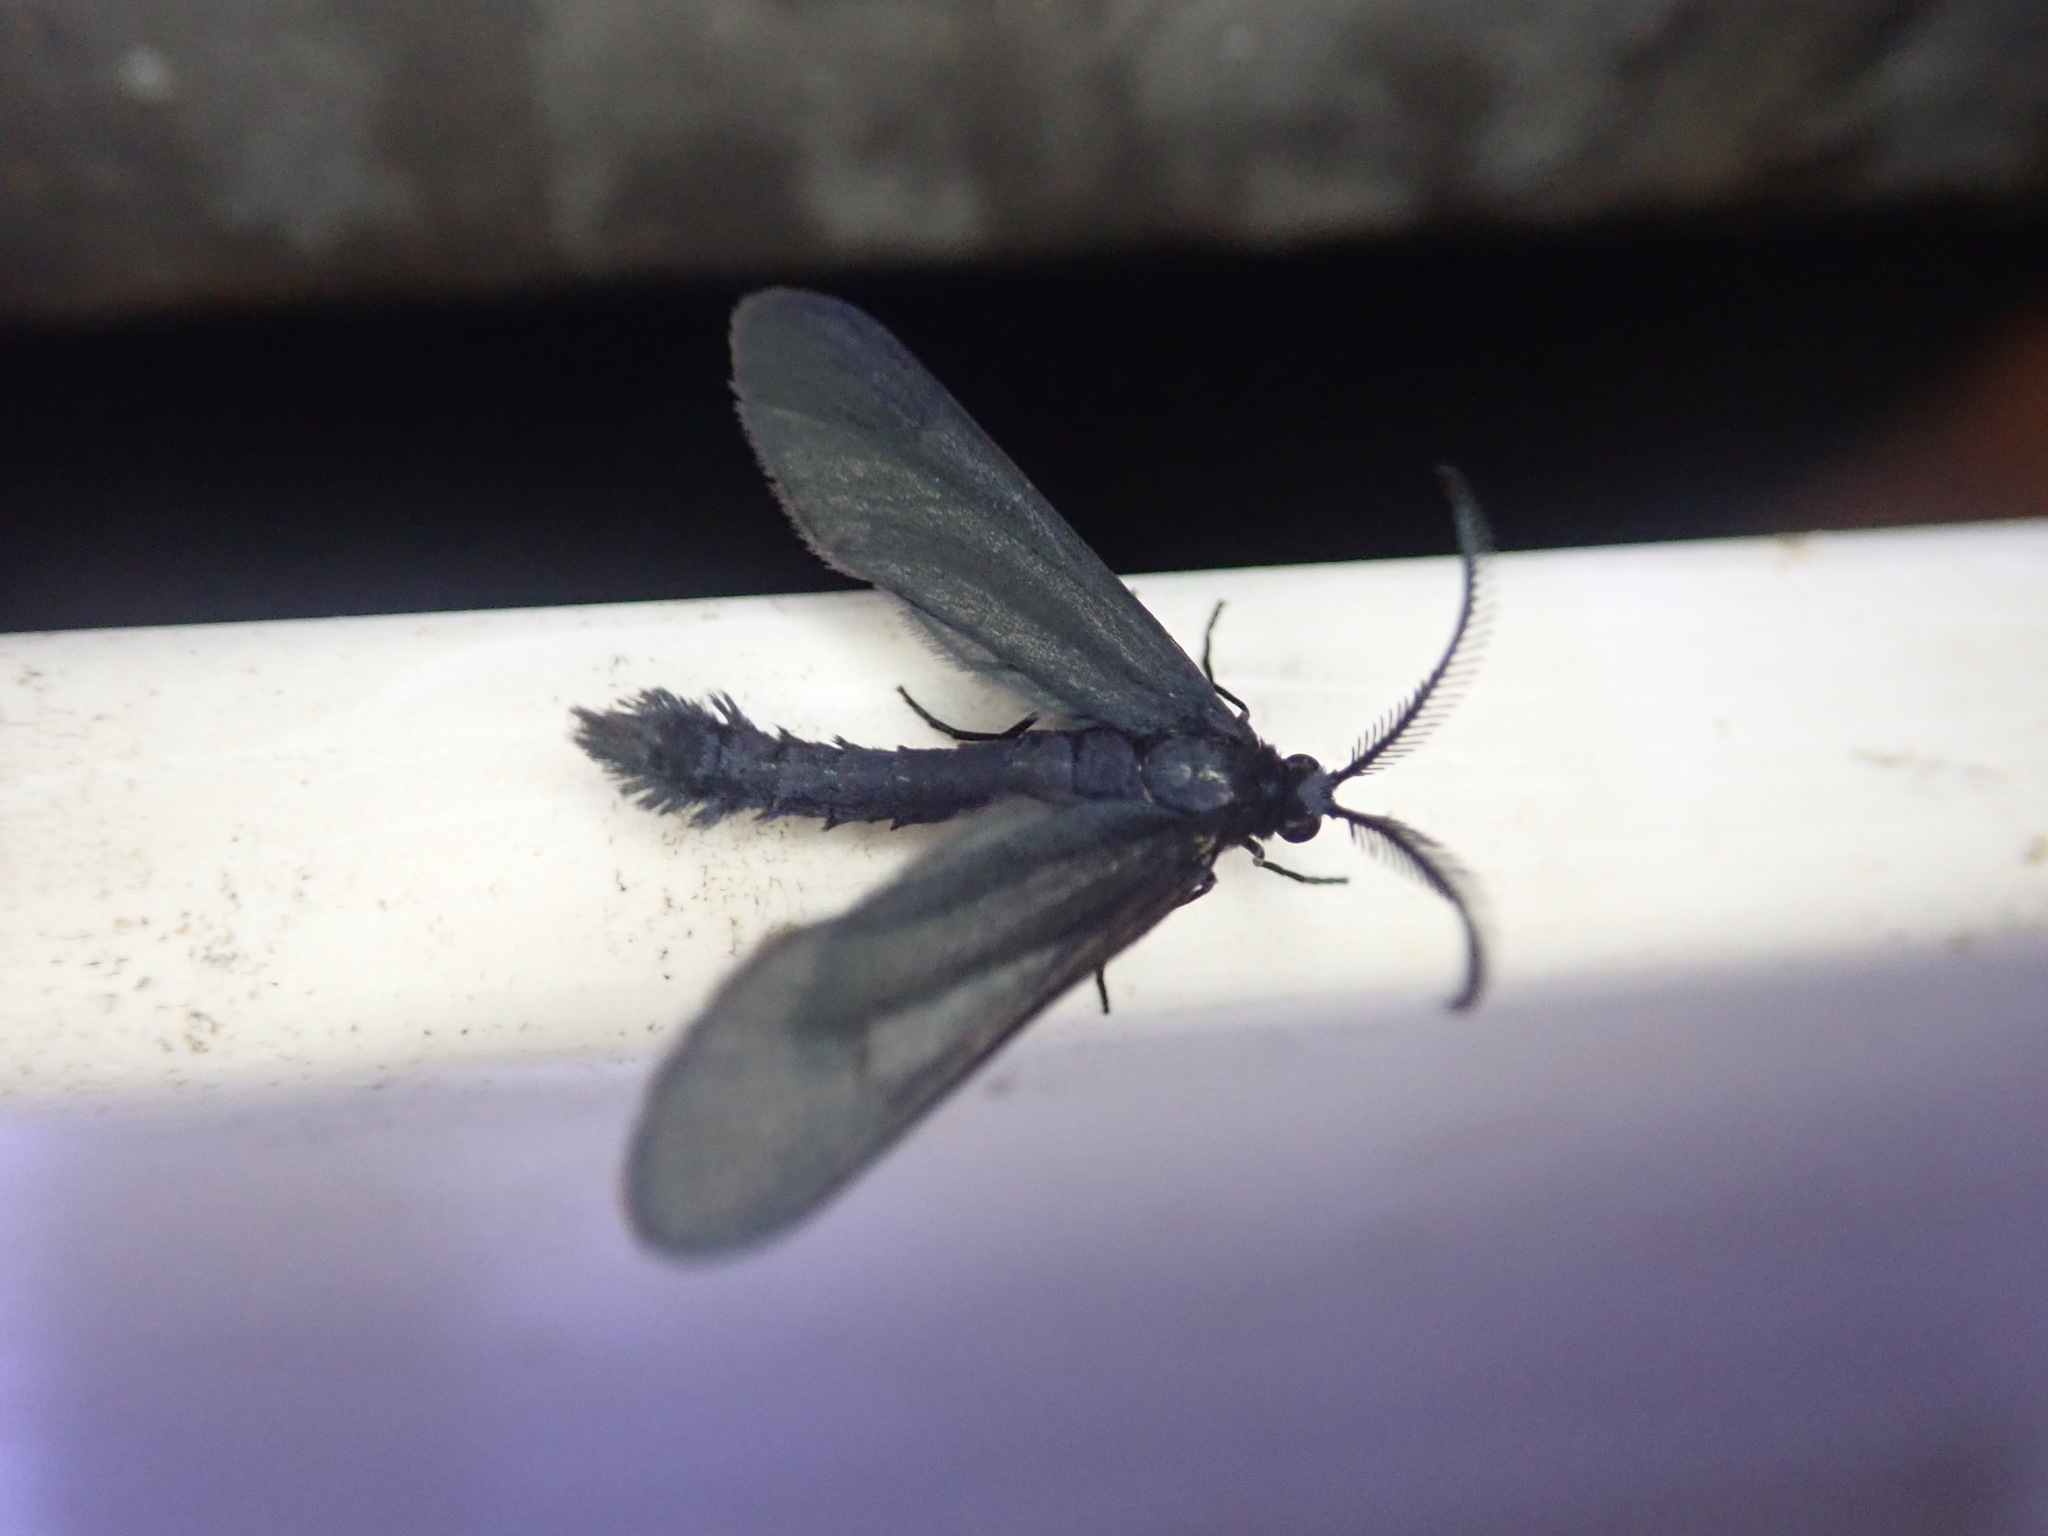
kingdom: Animalia
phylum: Arthropoda
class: Insecta
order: Lepidoptera
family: Zygaenidae
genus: Harrisina
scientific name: Harrisina coracina
